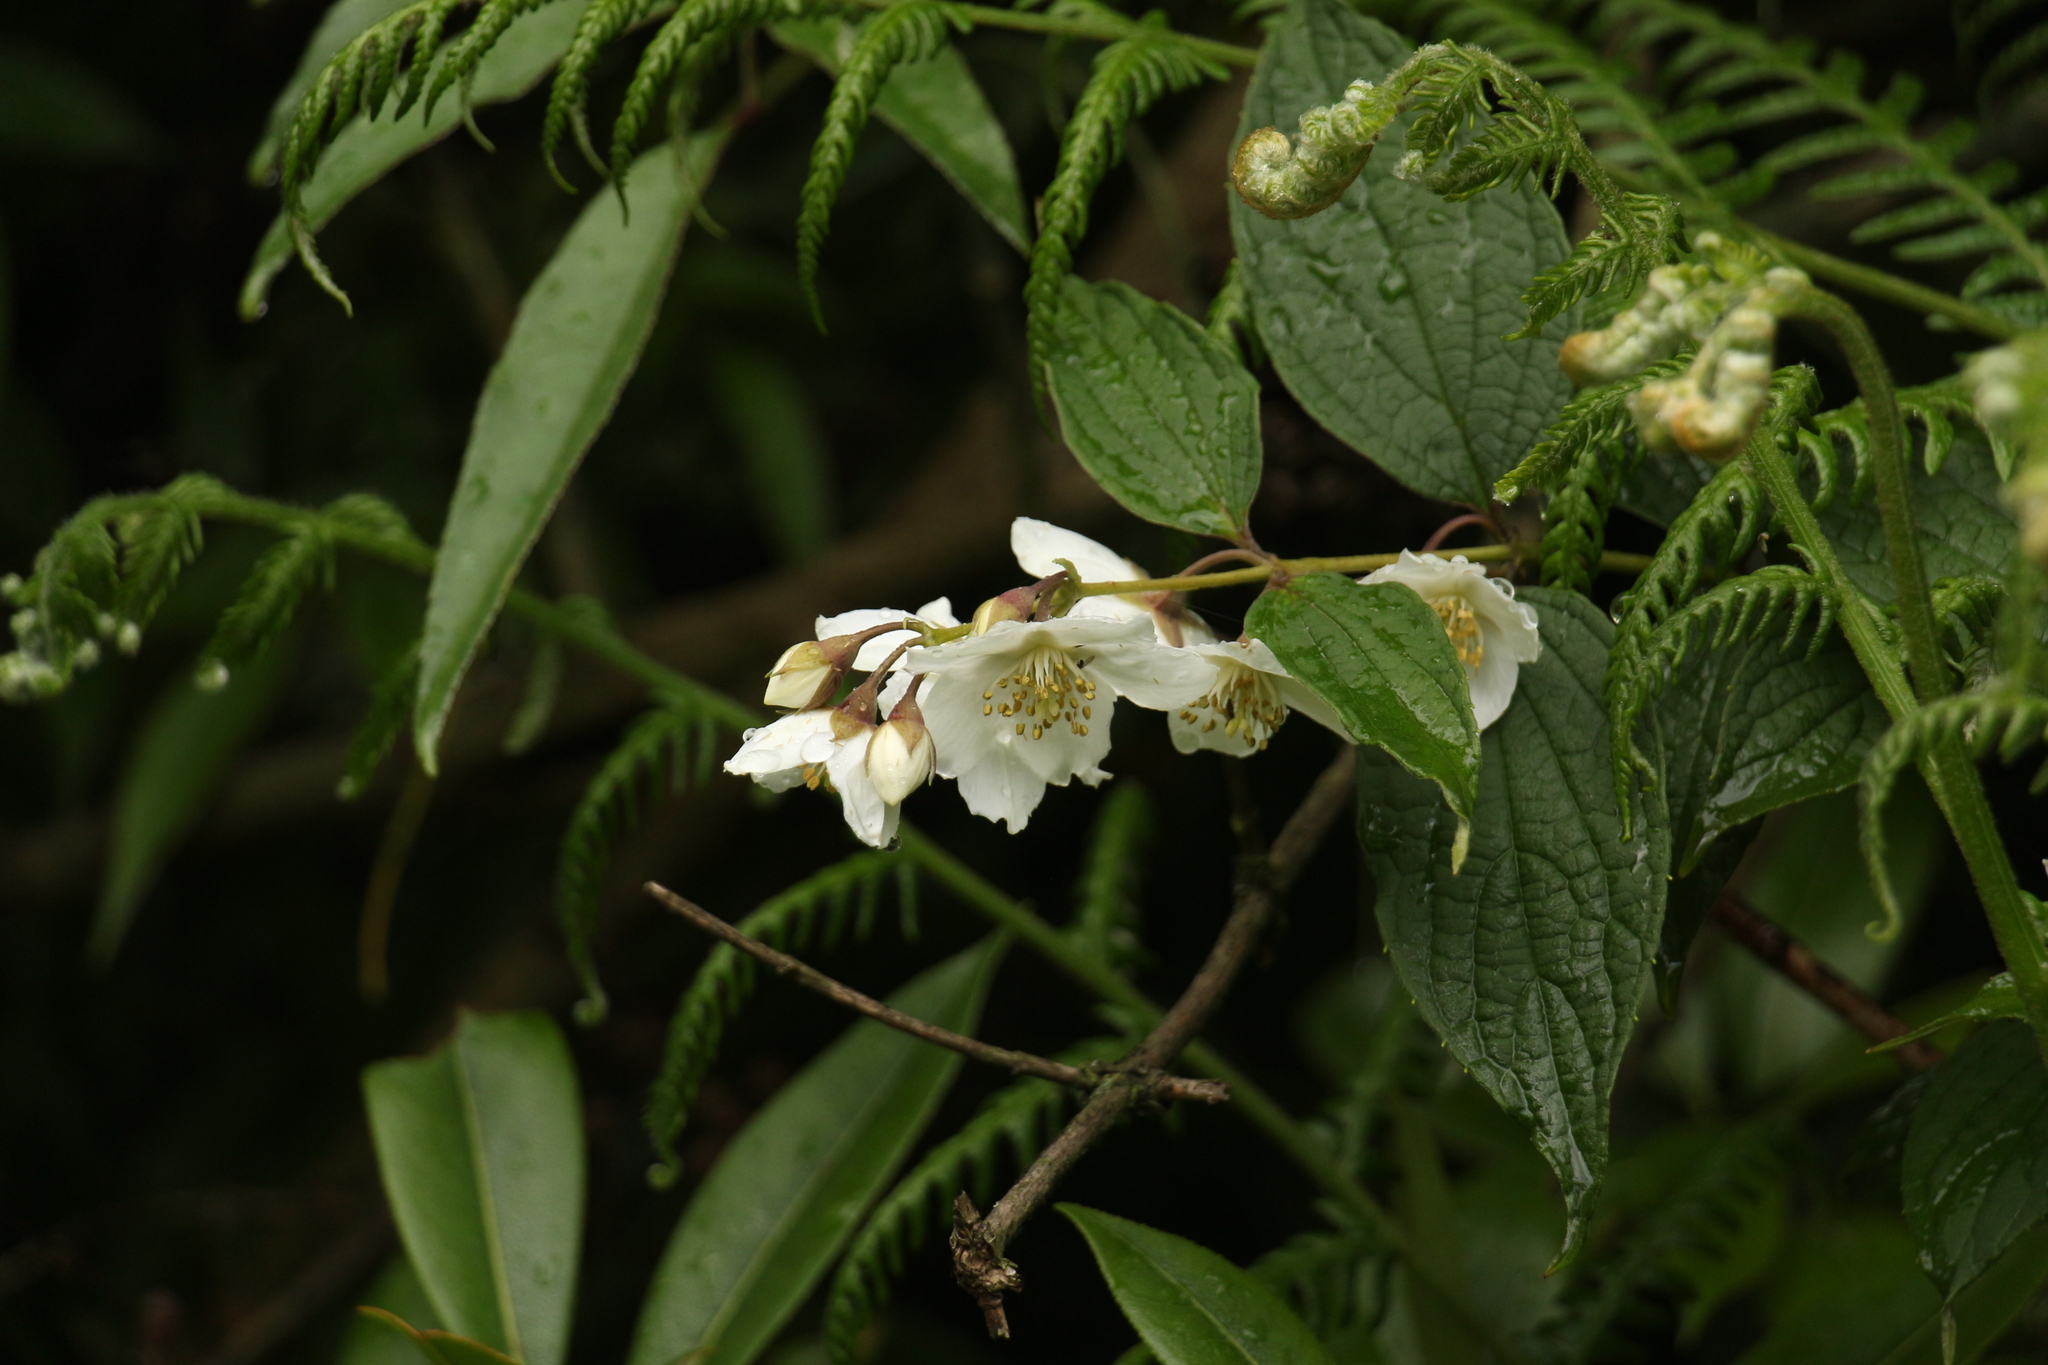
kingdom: Plantae
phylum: Tracheophyta
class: Magnoliopsida
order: Cornales
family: Hydrangeaceae
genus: Philadelphus
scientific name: Philadelphus tomentosus
